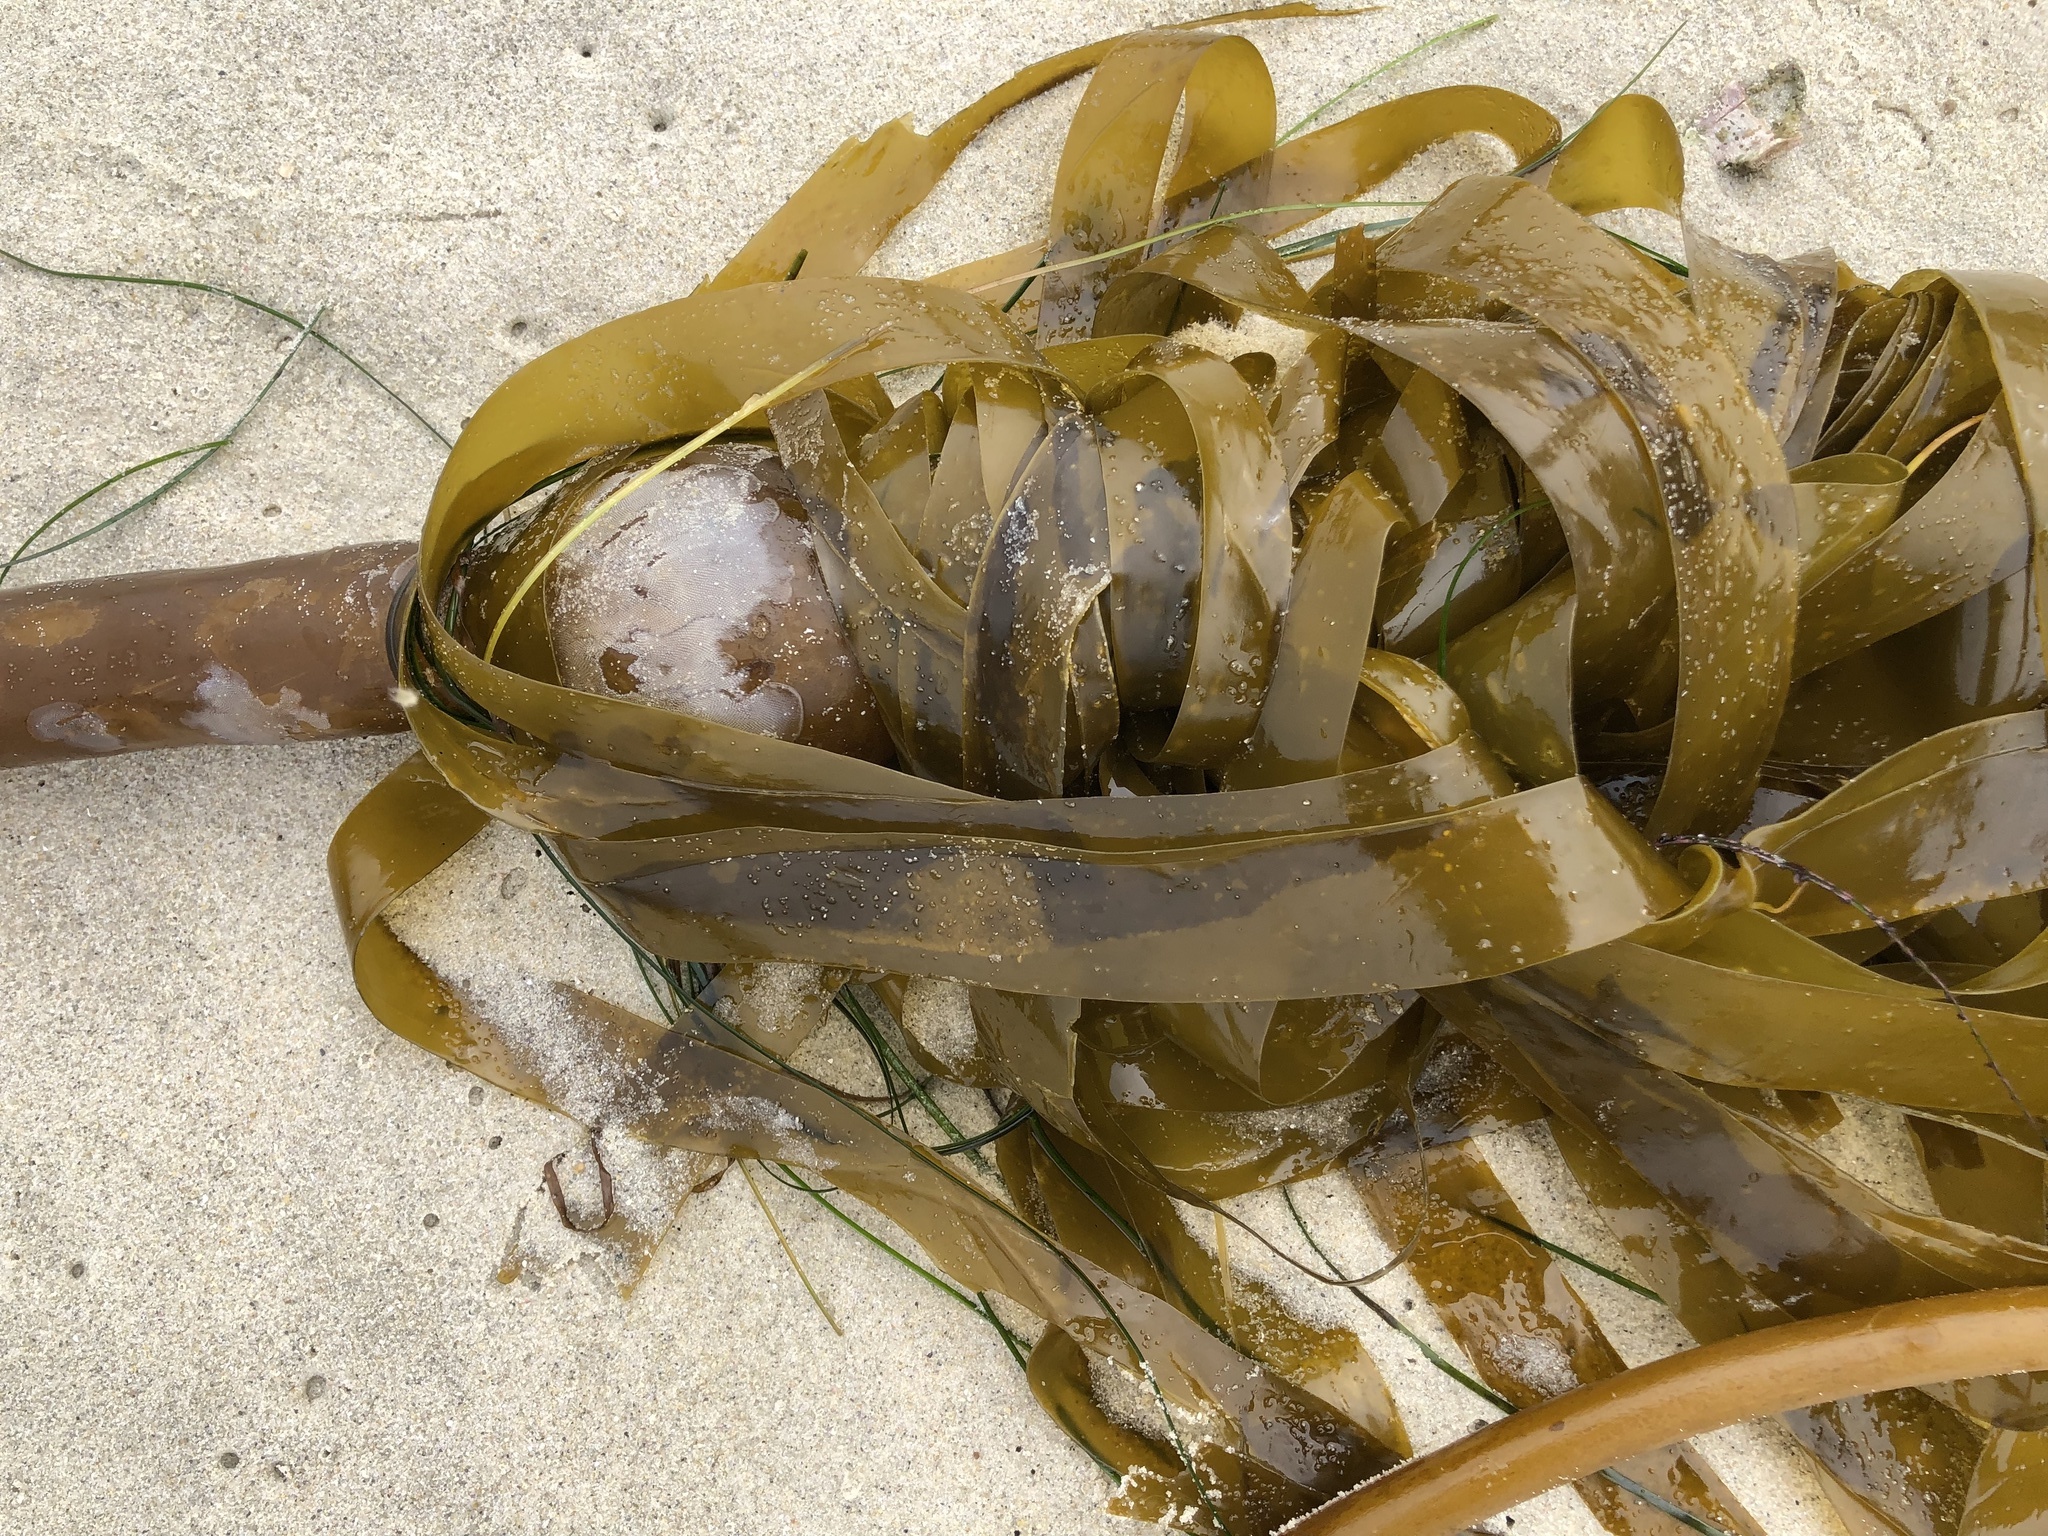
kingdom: Chromista
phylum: Ochrophyta
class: Phaeophyceae
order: Laminariales
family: Laminariaceae
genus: Nereocystis
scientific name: Nereocystis luetkeana
